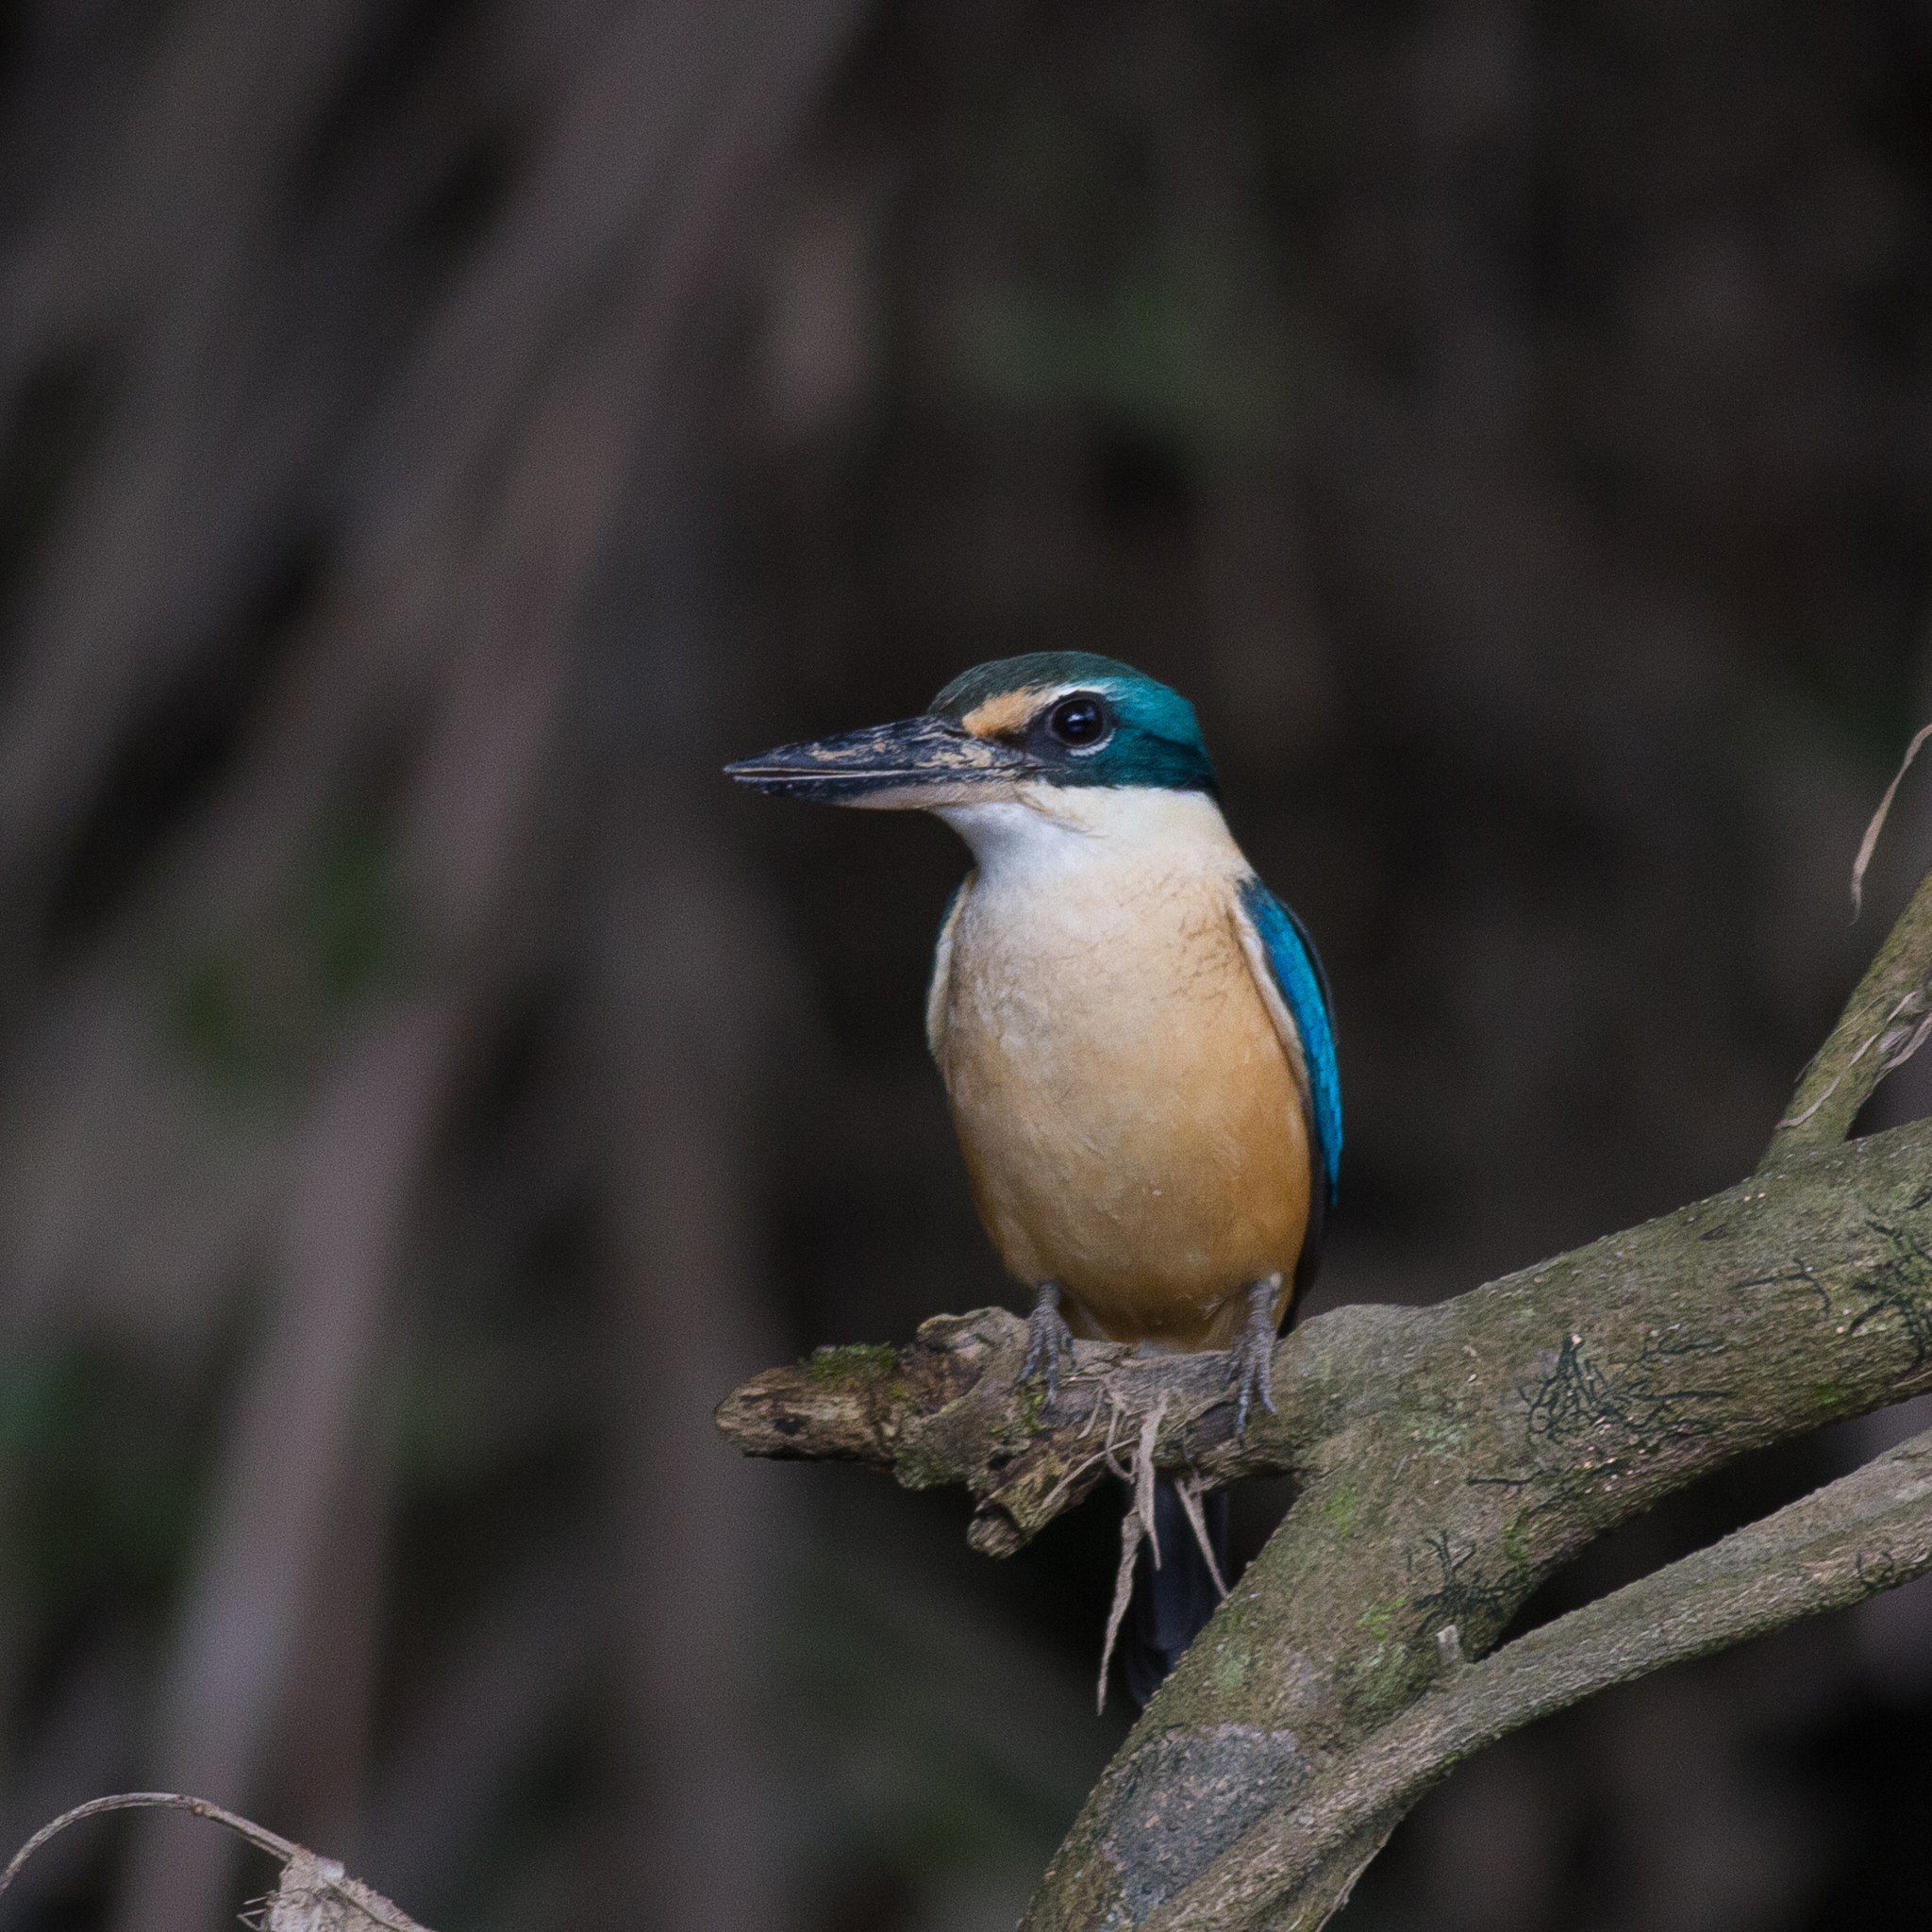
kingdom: Animalia
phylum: Chordata
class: Aves
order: Coraciiformes
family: Alcedinidae
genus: Todiramphus
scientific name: Todiramphus sanctus
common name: Sacred kingfisher
